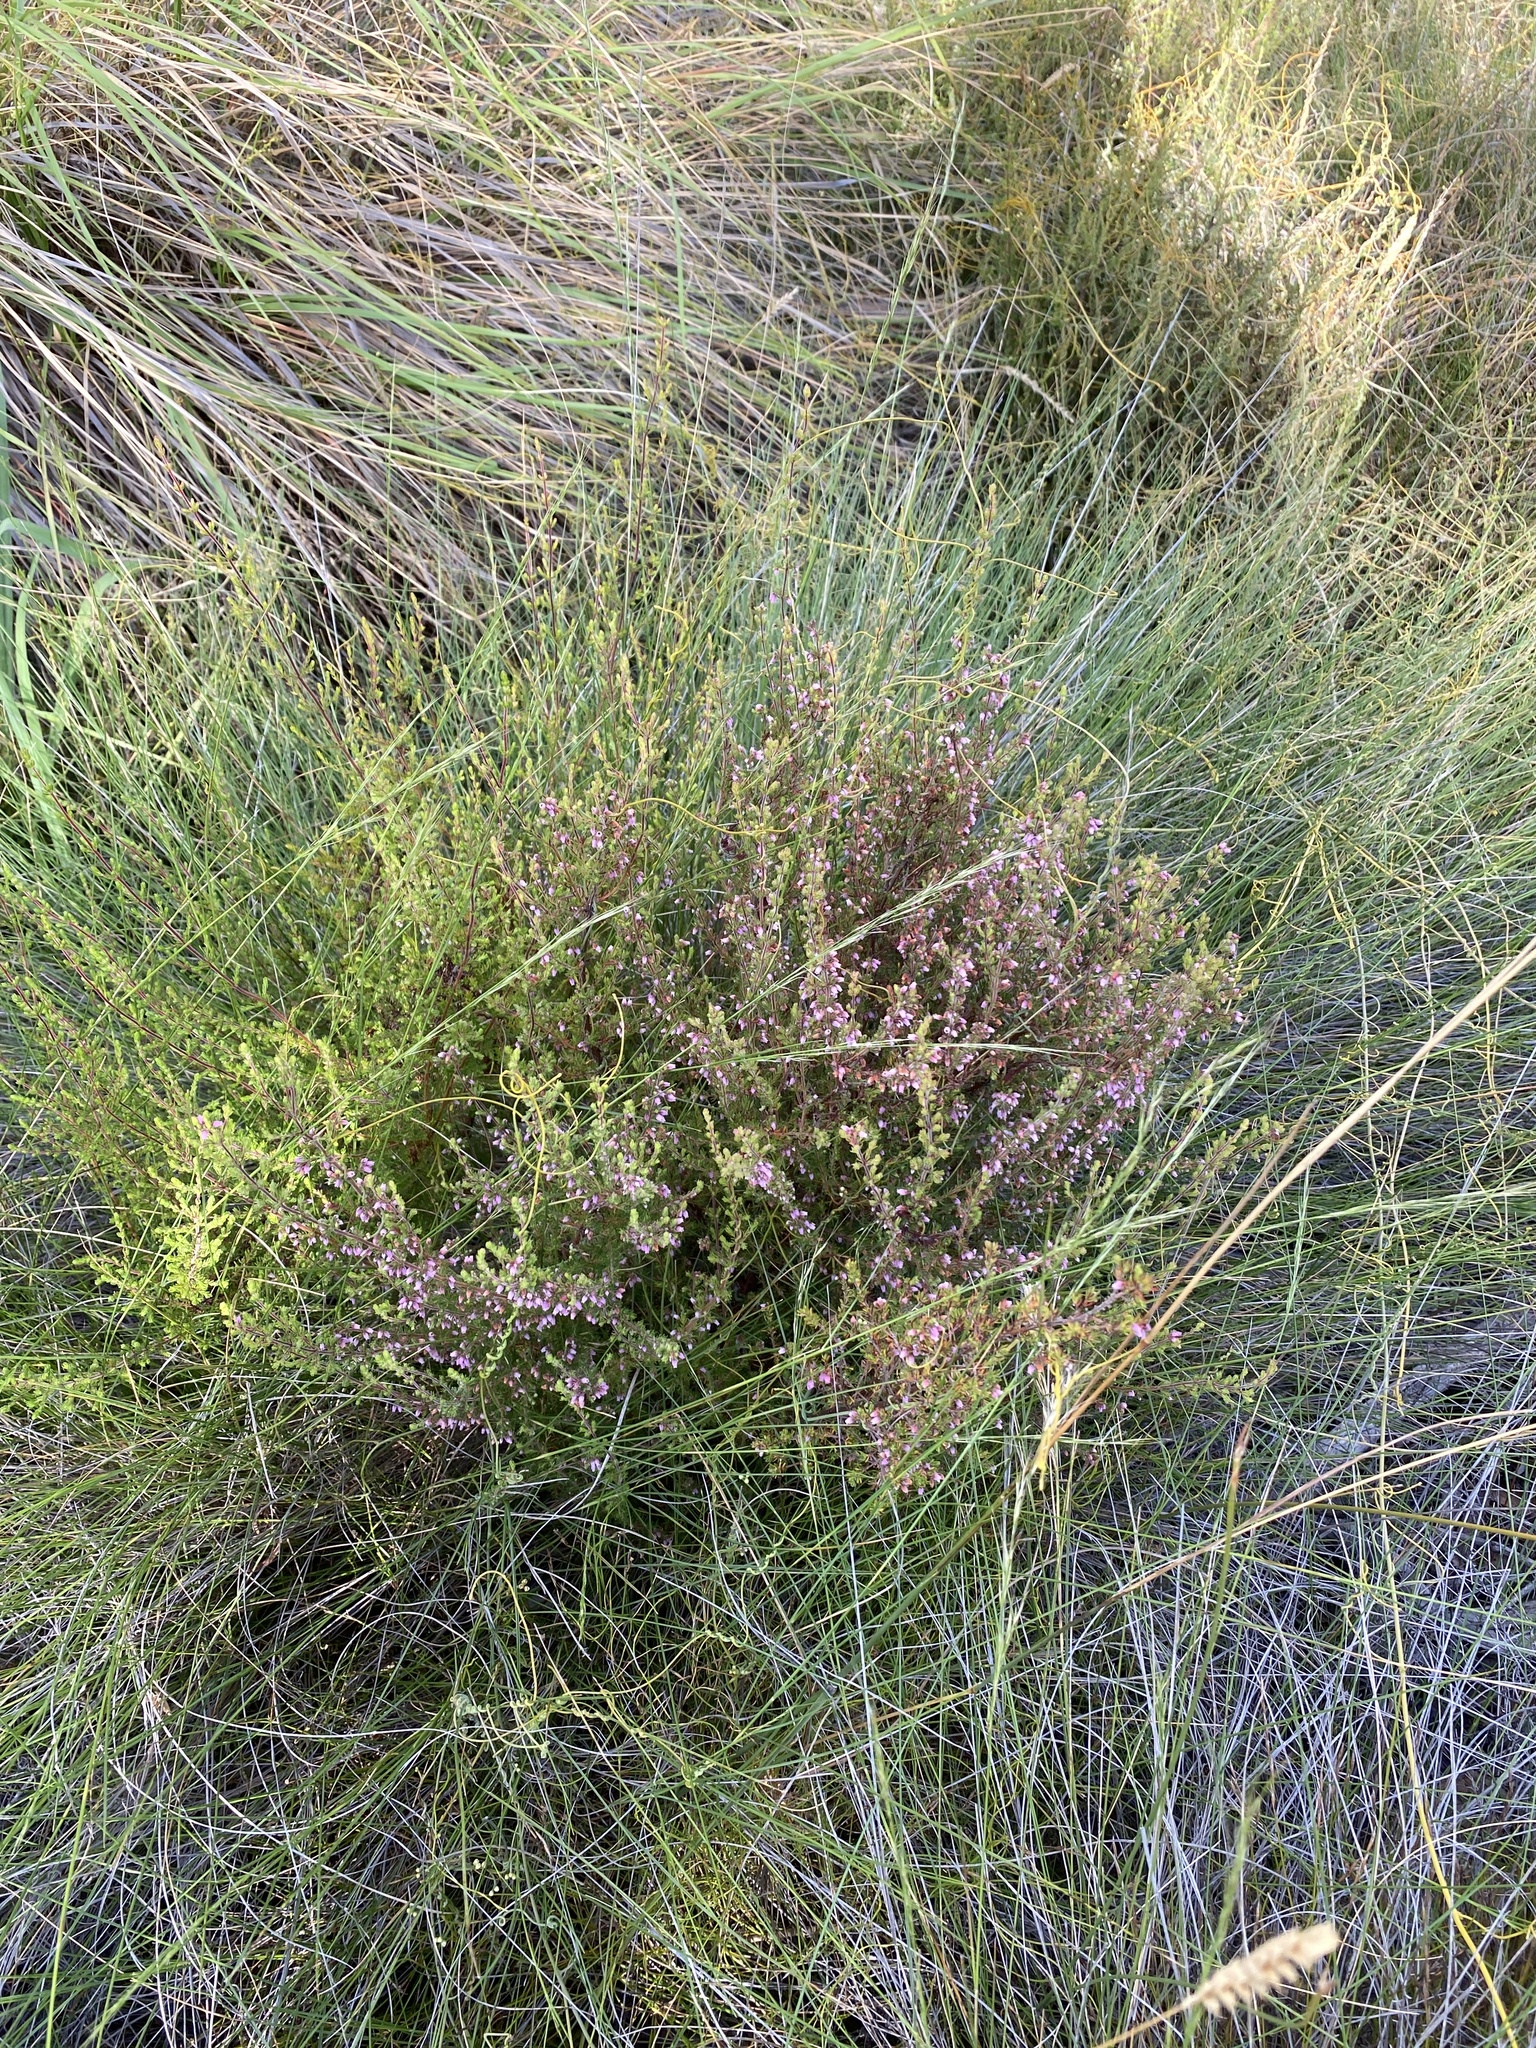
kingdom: Plantae
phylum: Tracheophyta
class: Magnoliopsida
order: Ericales
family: Ericaceae
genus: Erica
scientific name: Erica parviflora
